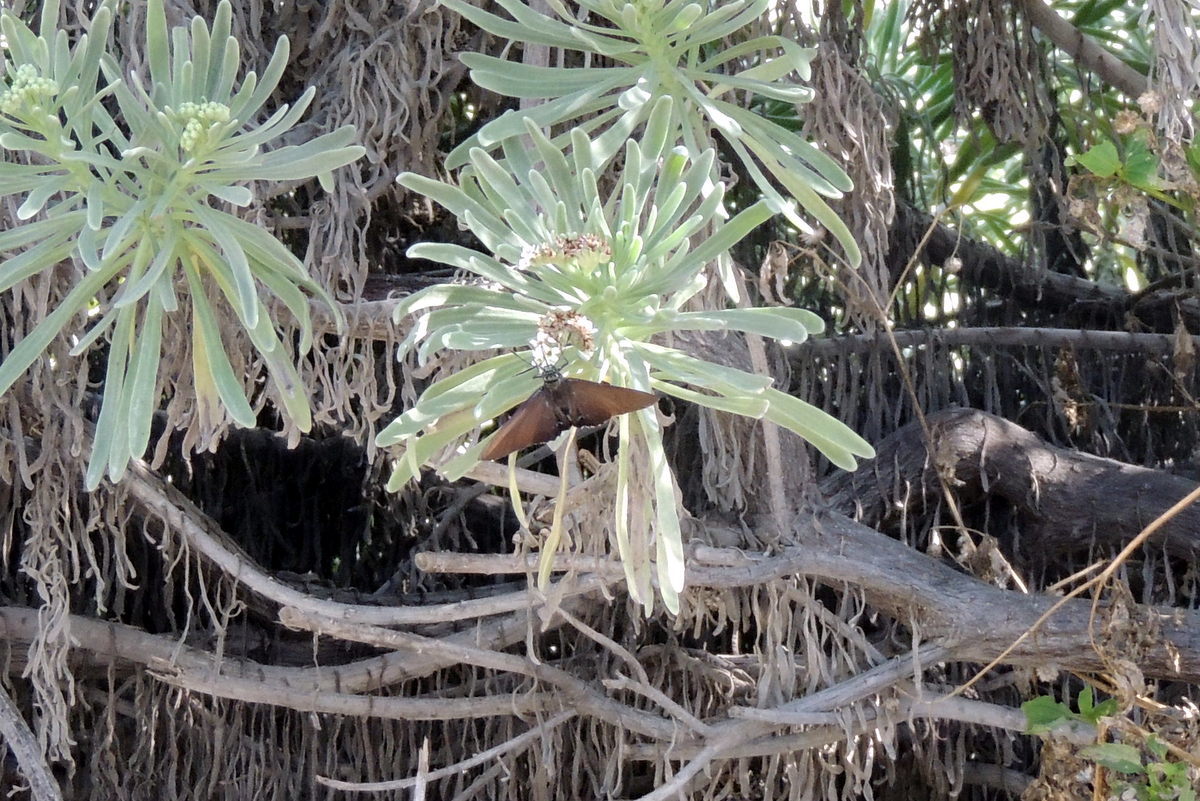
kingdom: Animalia
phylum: Arthropoda
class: Insecta
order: Lepidoptera
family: Hesperiidae
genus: Phocides
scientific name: Phocides pigmalion
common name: Mangrove skipper
